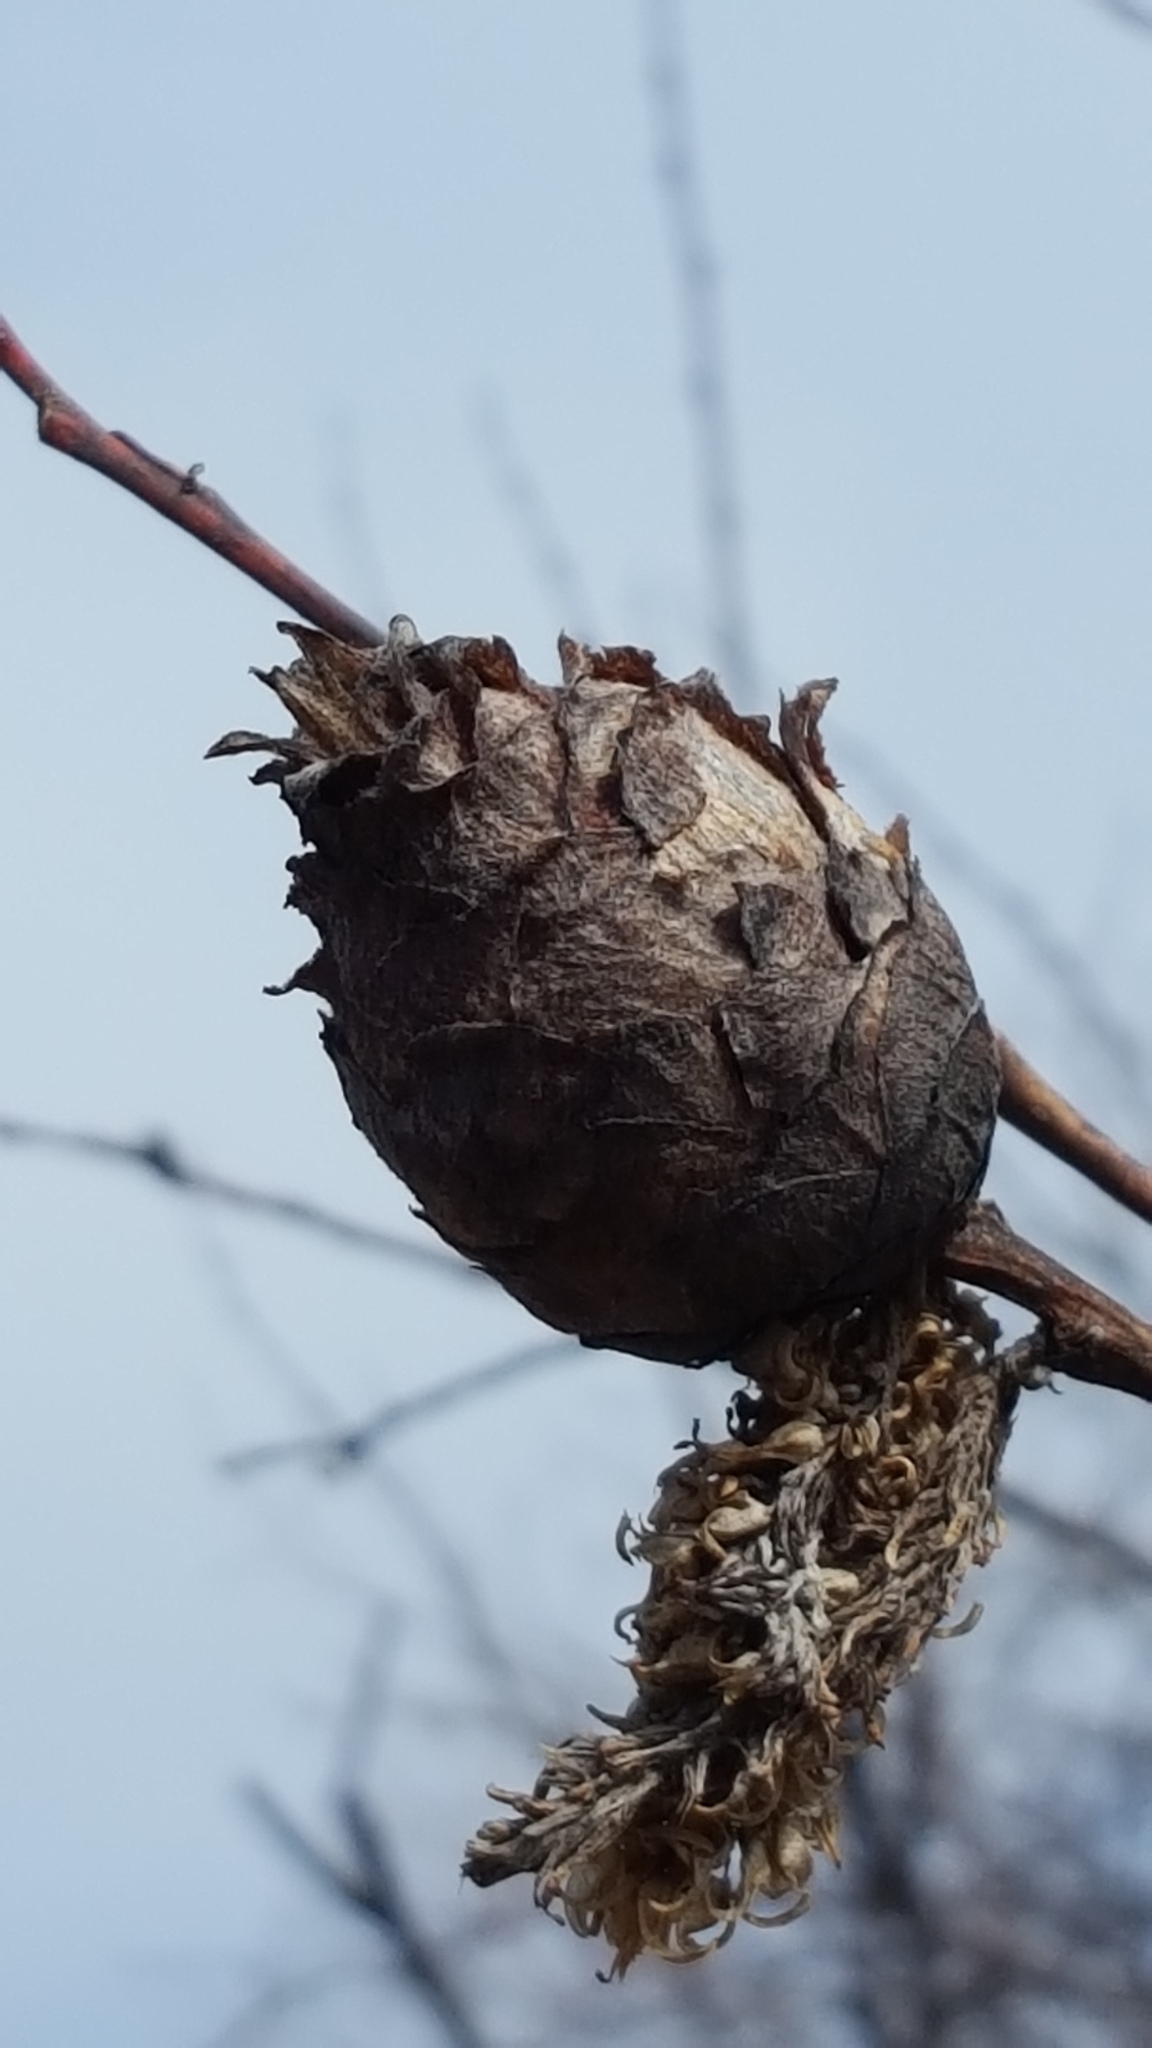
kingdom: Animalia
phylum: Arthropoda
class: Insecta
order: Diptera
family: Cecidomyiidae
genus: Rabdophaga
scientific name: Rabdophaga strobiloides
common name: Willow pinecone gall midge
